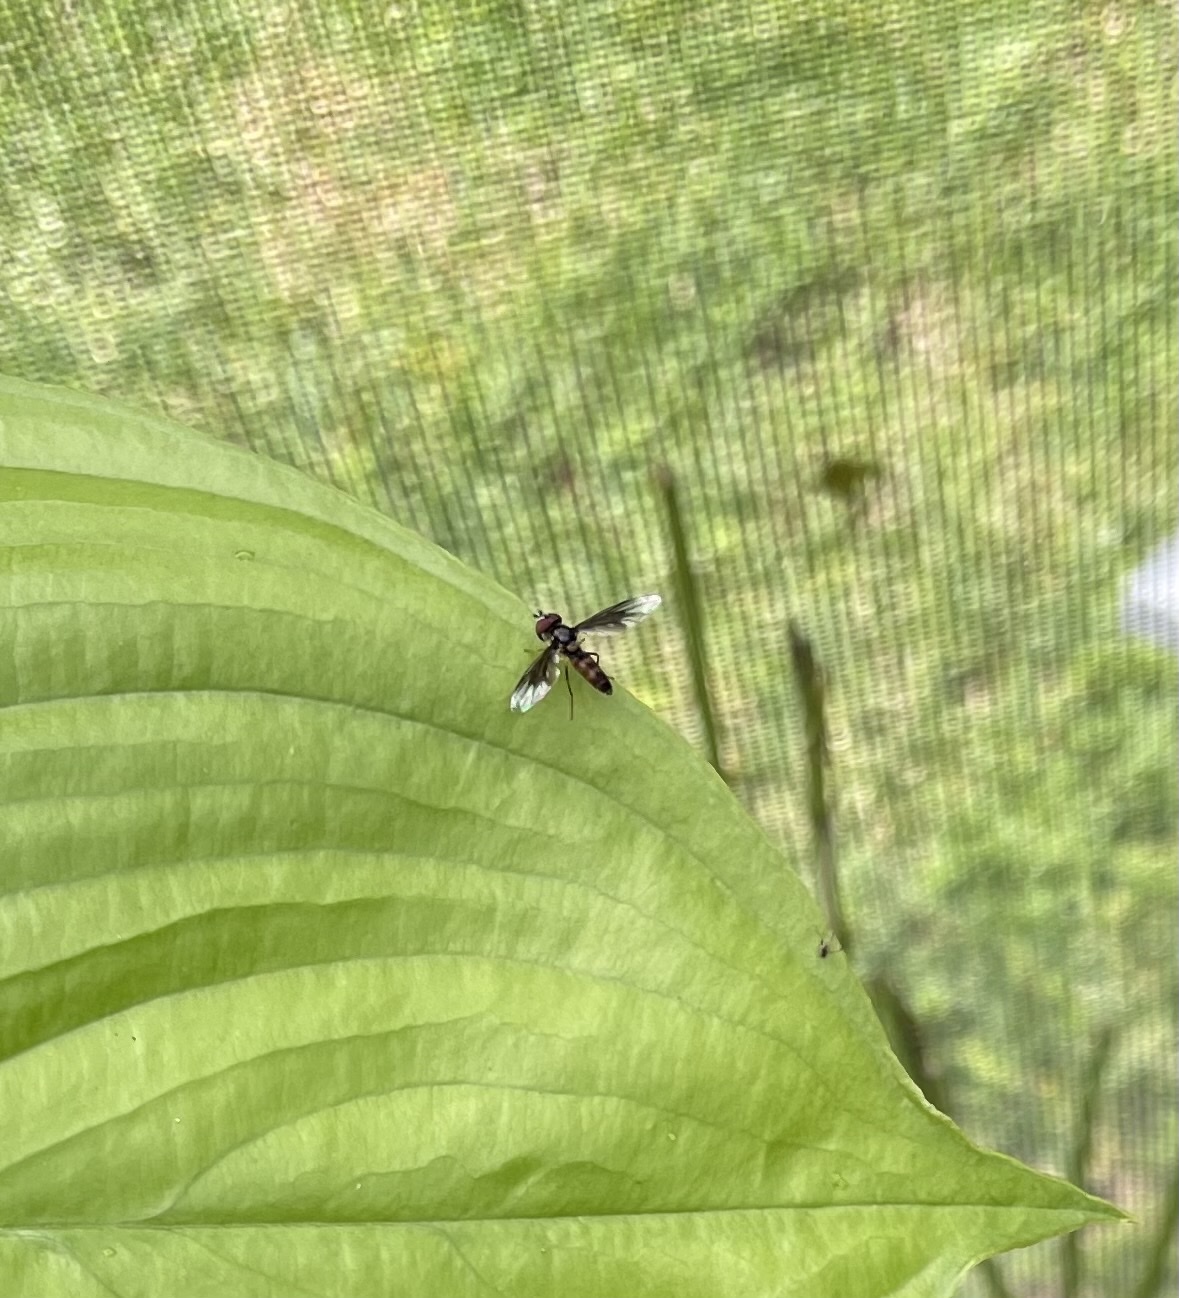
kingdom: Animalia
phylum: Arthropoda
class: Insecta
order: Diptera
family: Syrphidae
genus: Ocyptamus
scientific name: Ocyptamus antiphates
